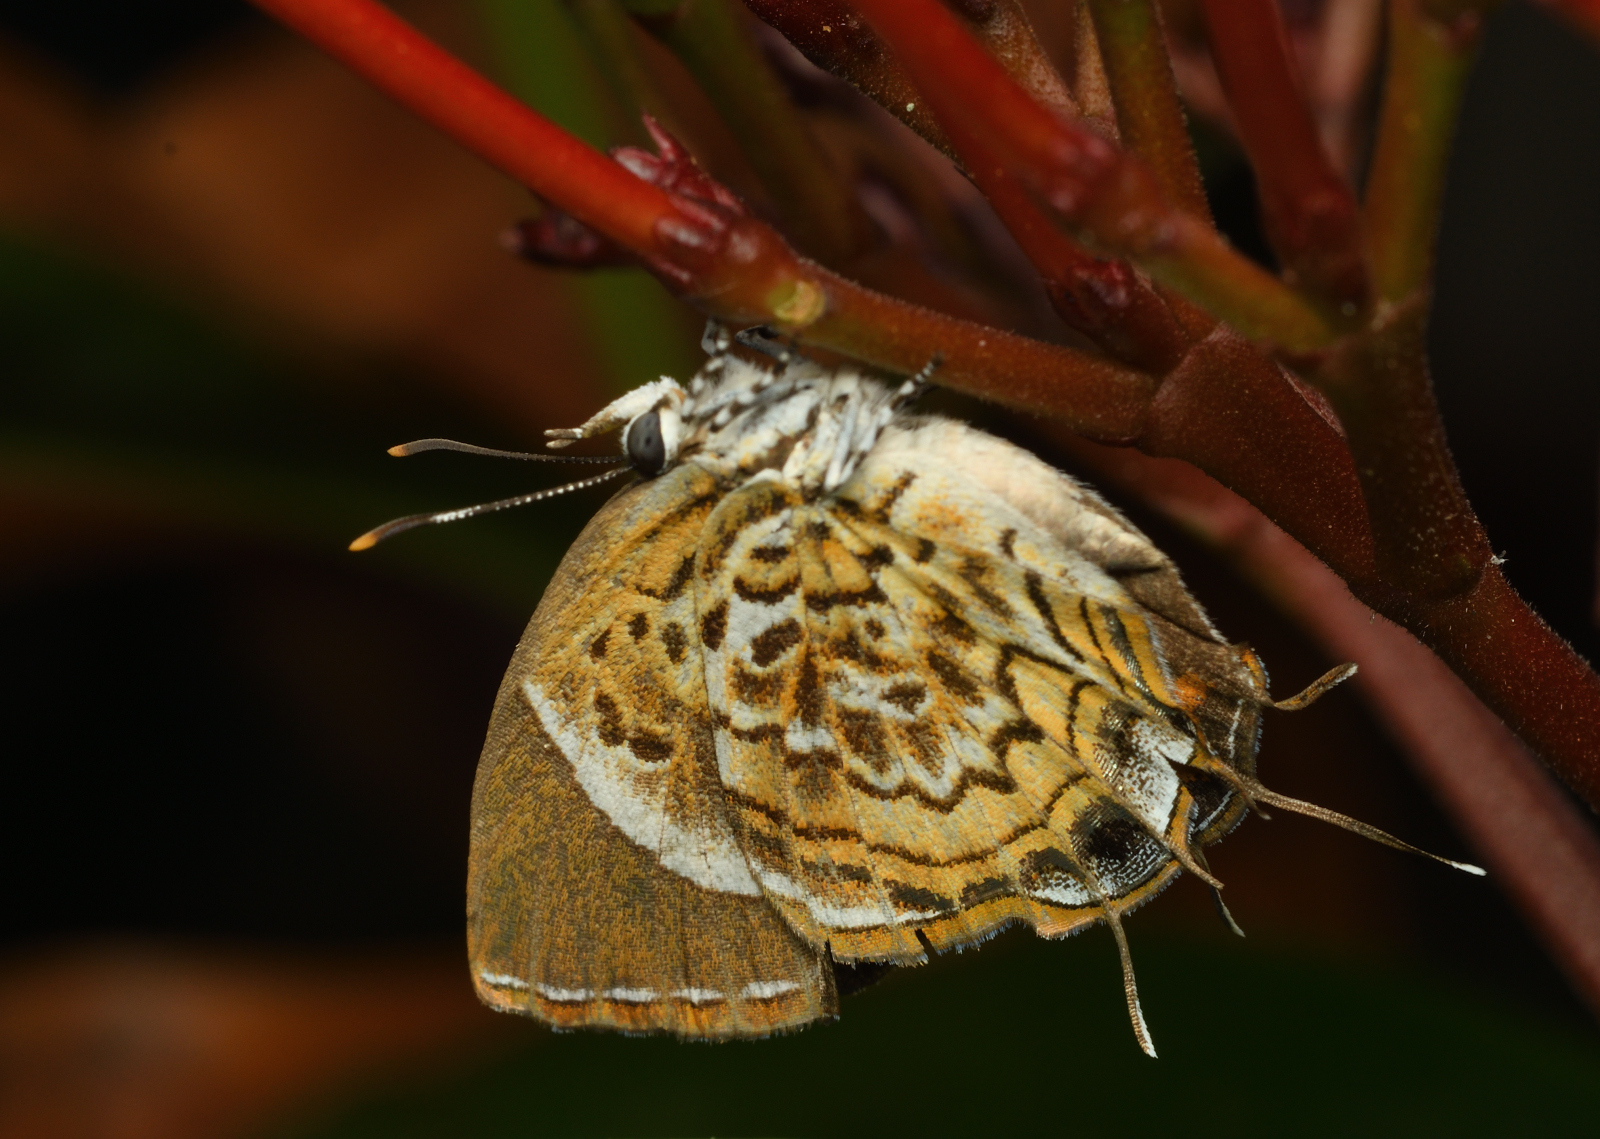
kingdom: Animalia
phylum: Arthropoda
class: Insecta
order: Lepidoptera
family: Lycaenidae
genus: Rathinda
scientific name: Rathinda amor
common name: Monkey puzzle
